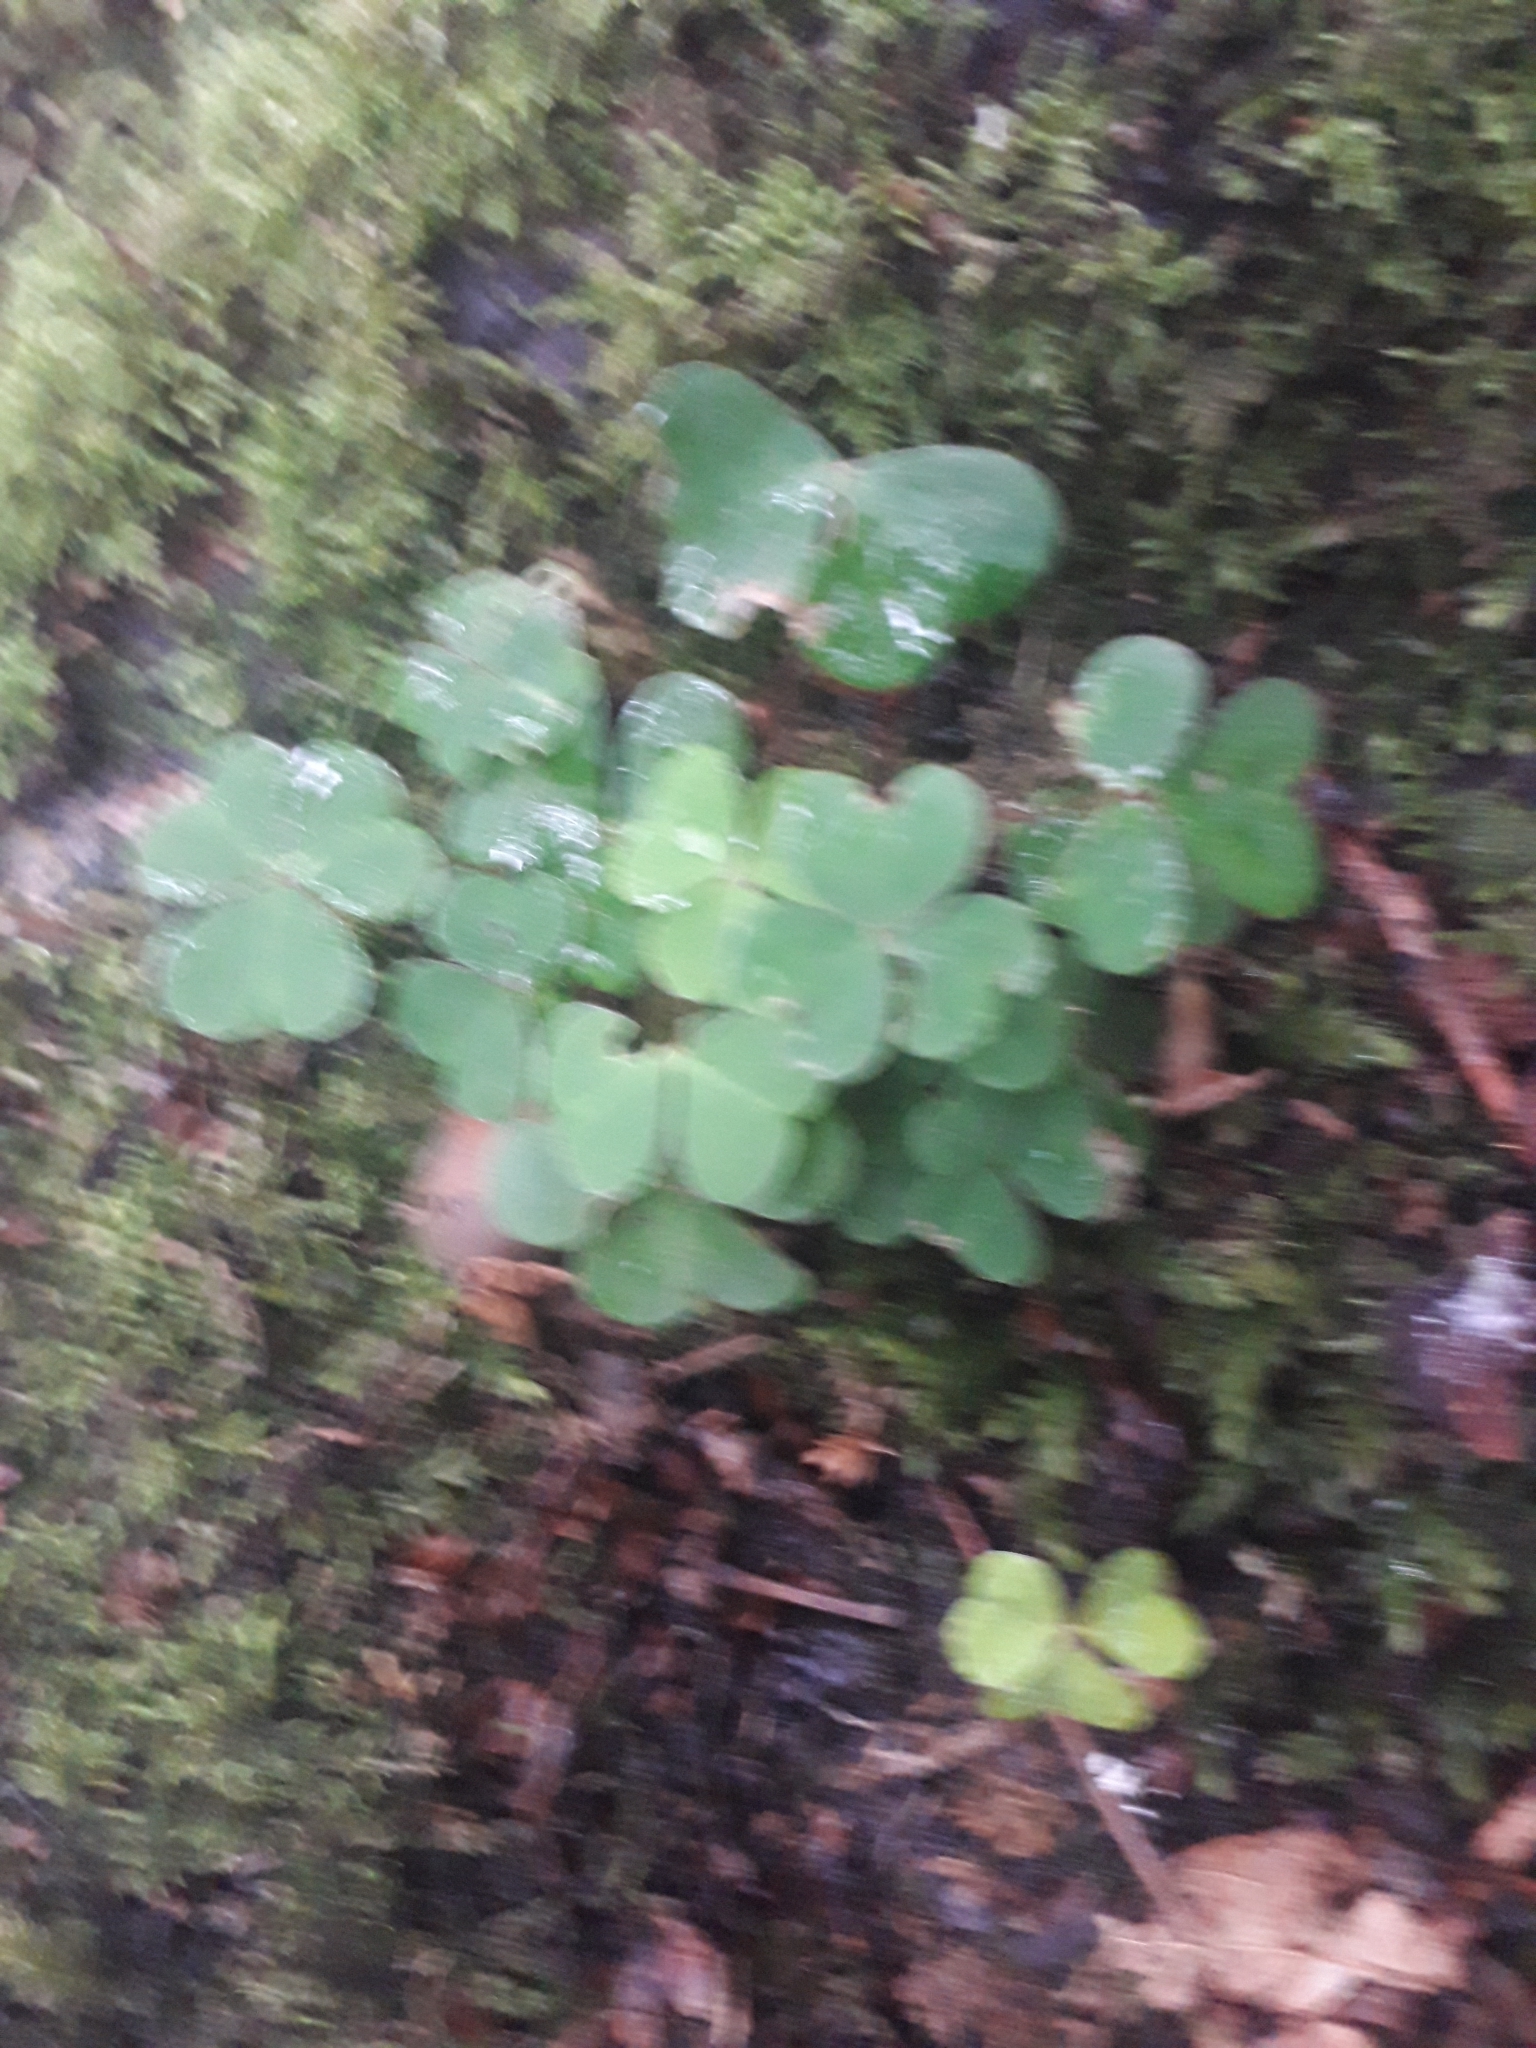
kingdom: Plantae
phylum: Tracheophyta
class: Magnoliopsida
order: Oxalidales
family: Oxalidaceae
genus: Oxalis
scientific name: Oxalis acetosella
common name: Wood-sorrel
